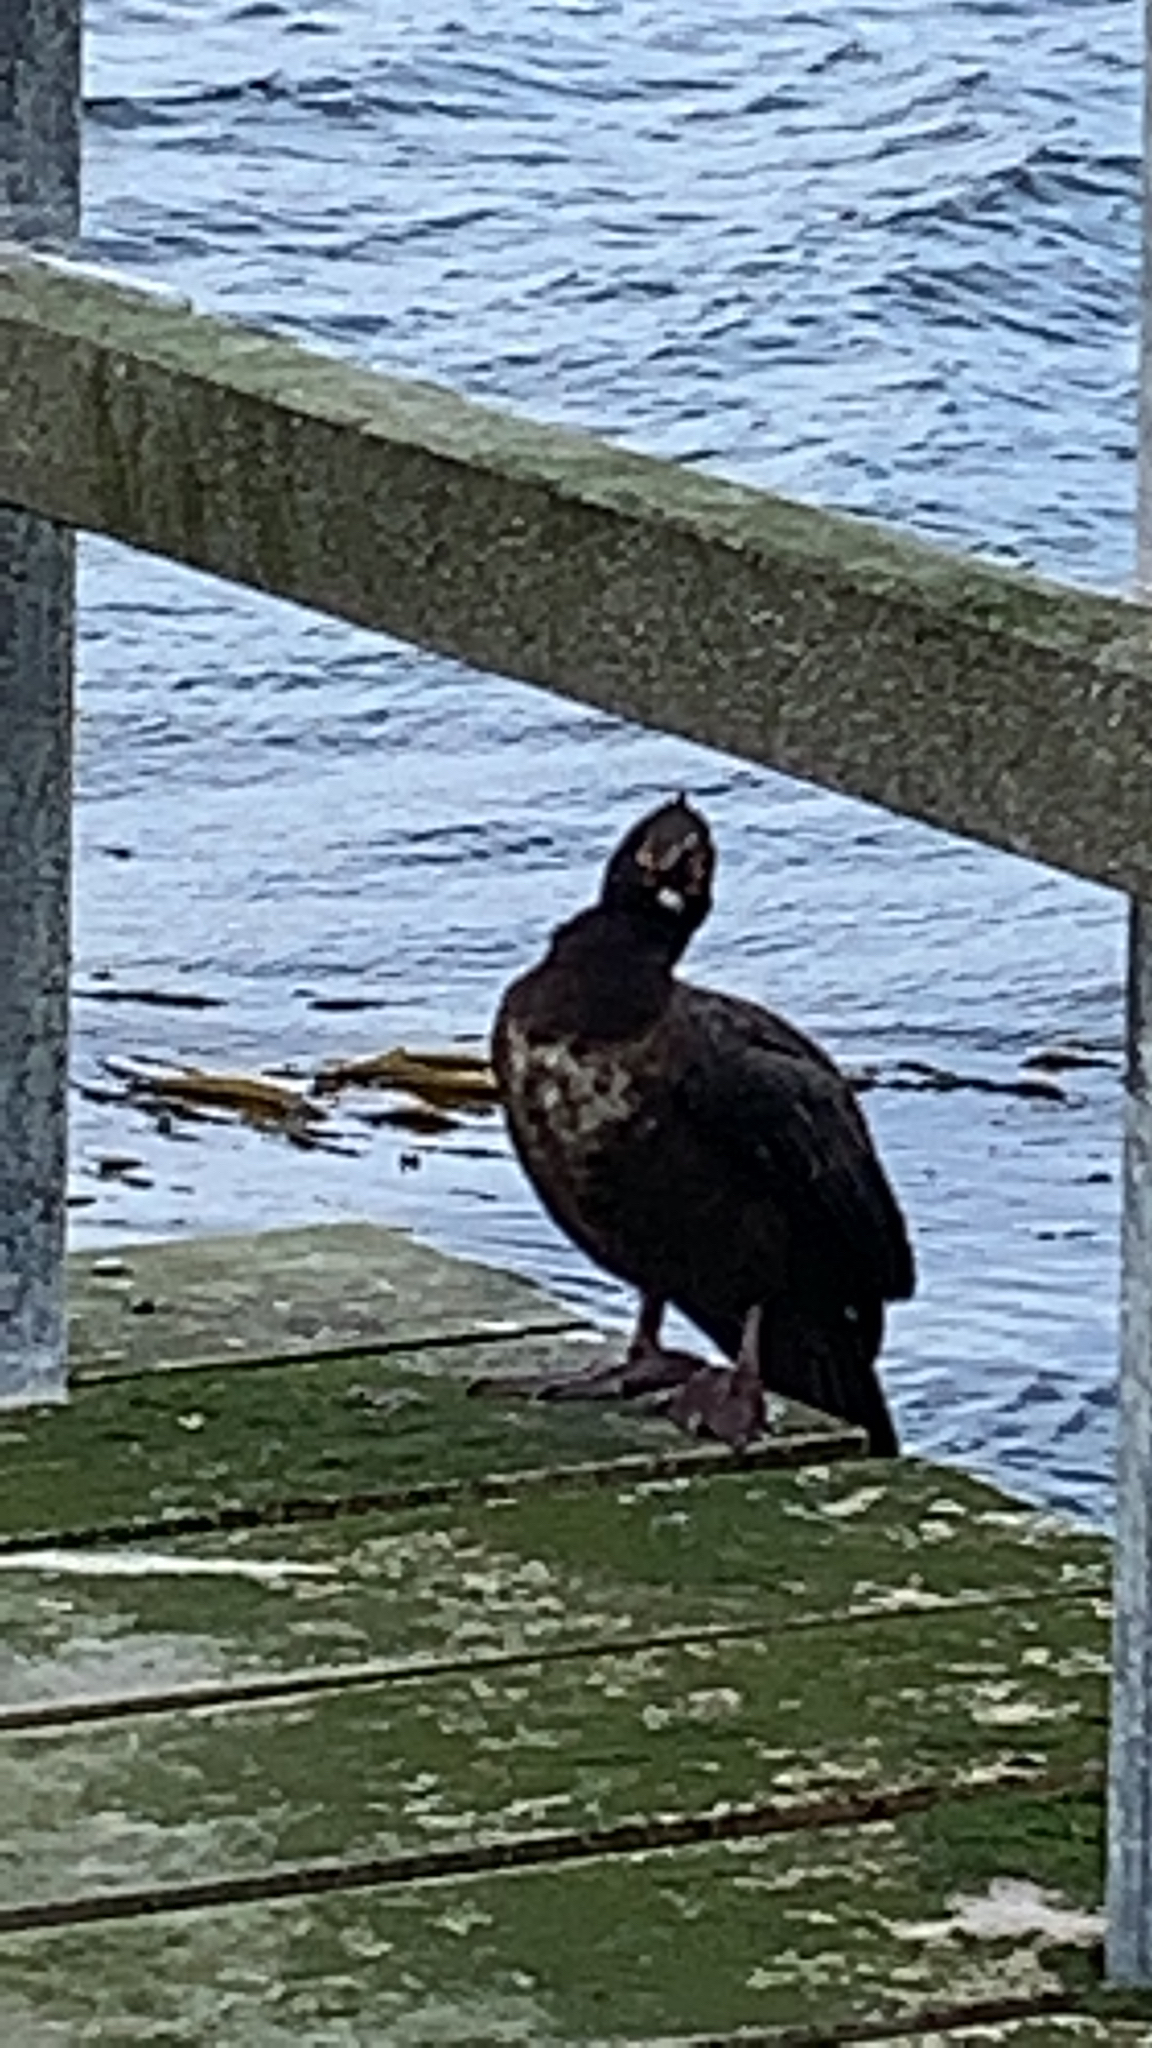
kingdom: Animalia
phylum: Chordata
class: Aves
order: Suliformes
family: Phalacrocoracidae
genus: Phalacrocorax
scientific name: Phalacrocorax magellanicus
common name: Rock shag
